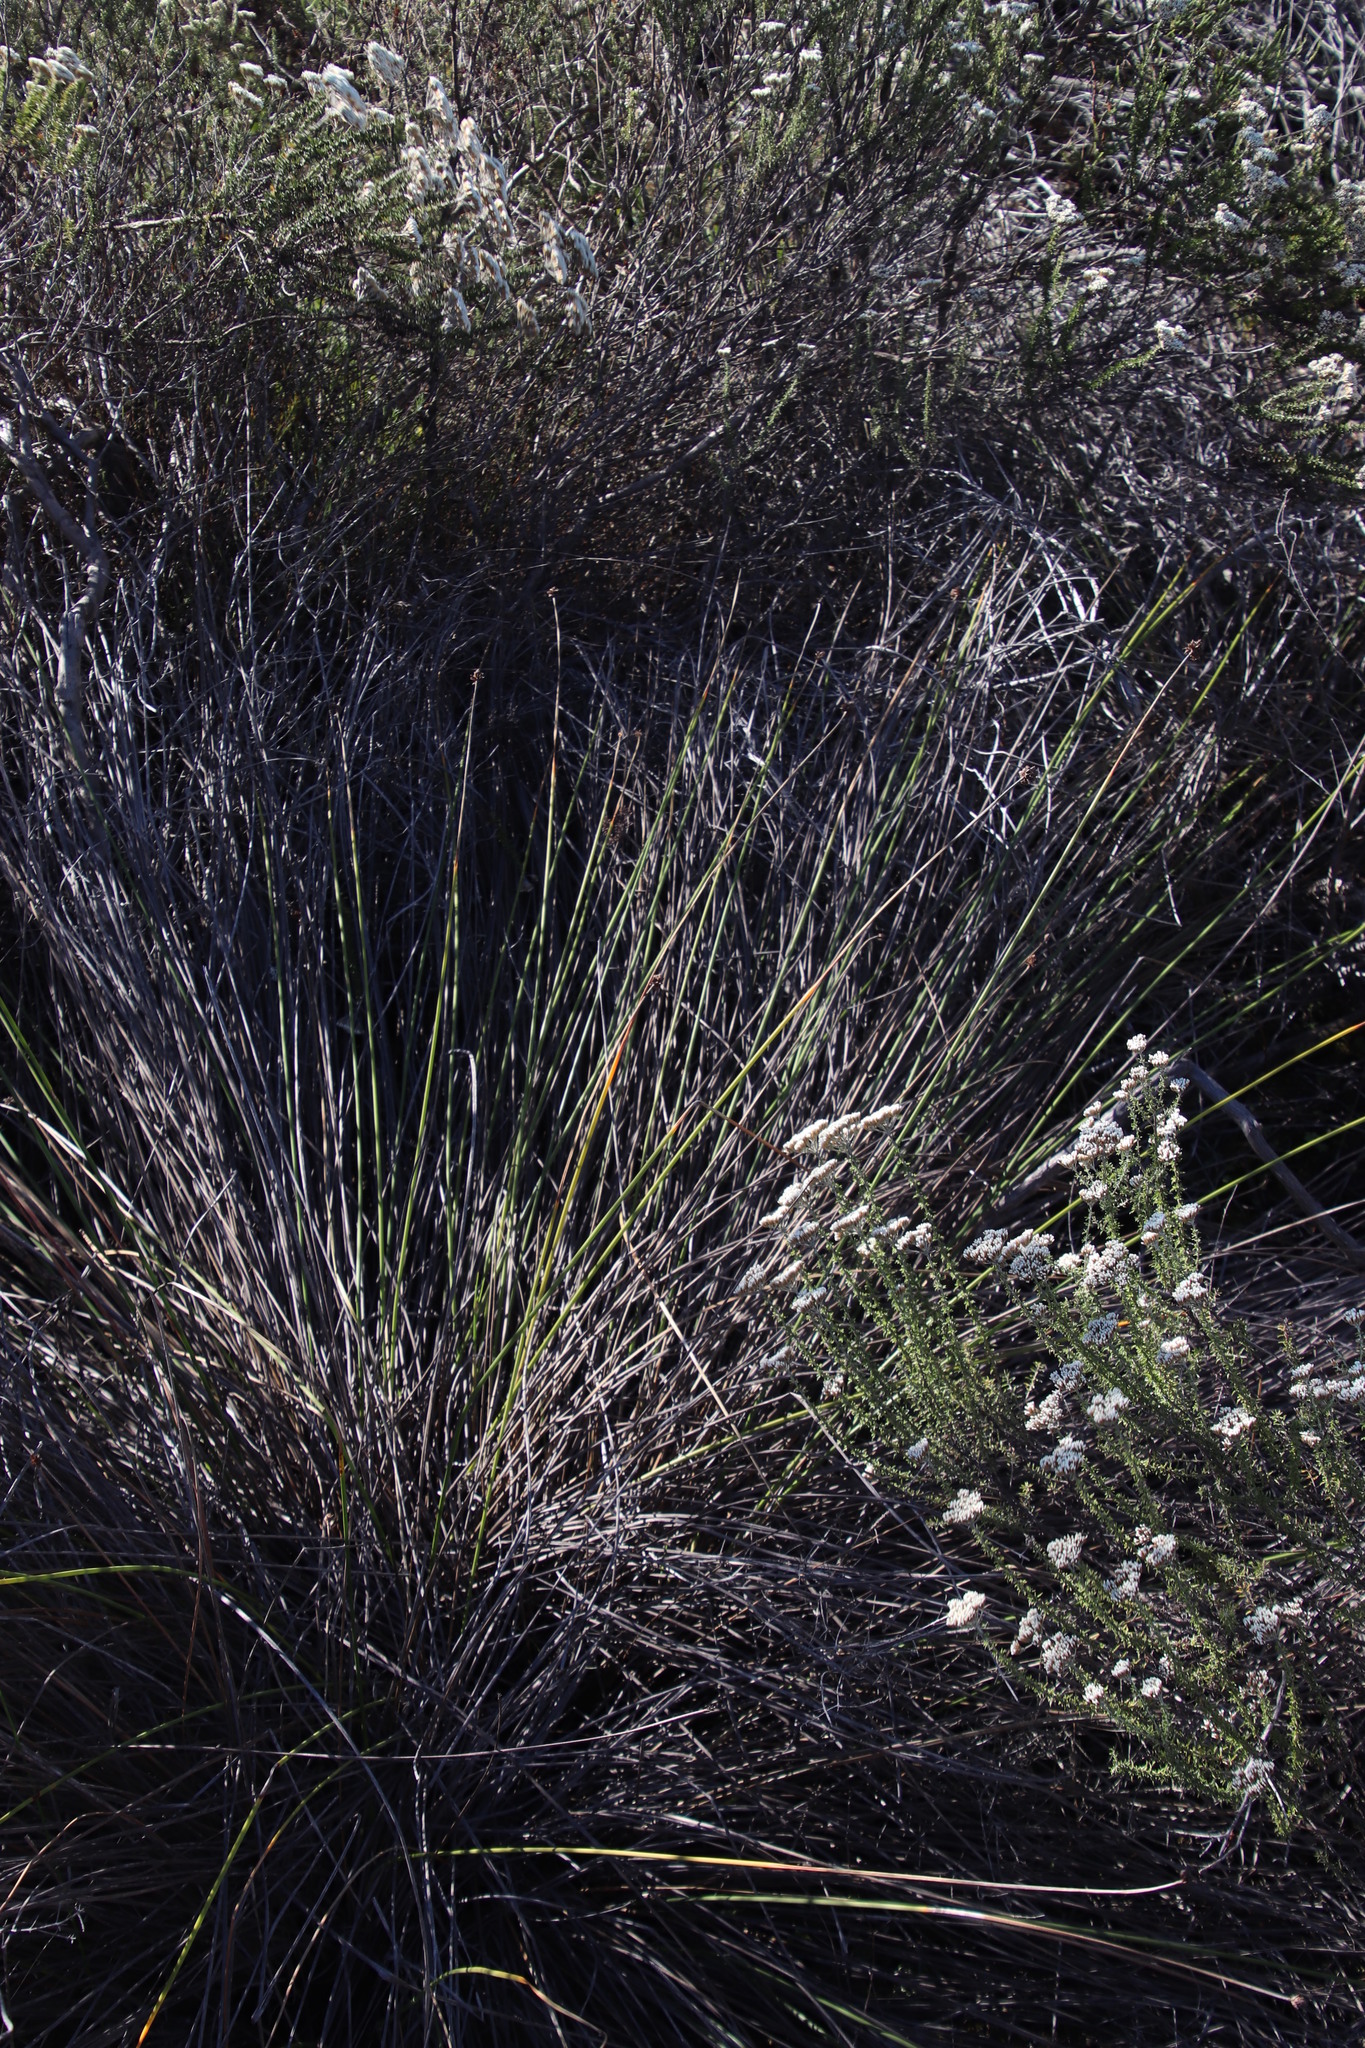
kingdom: Plantae
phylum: Tracheophyta
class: Liliopsida
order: Poales
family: Cyperaceae
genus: Ficinia
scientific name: Ficinia brevifolia
